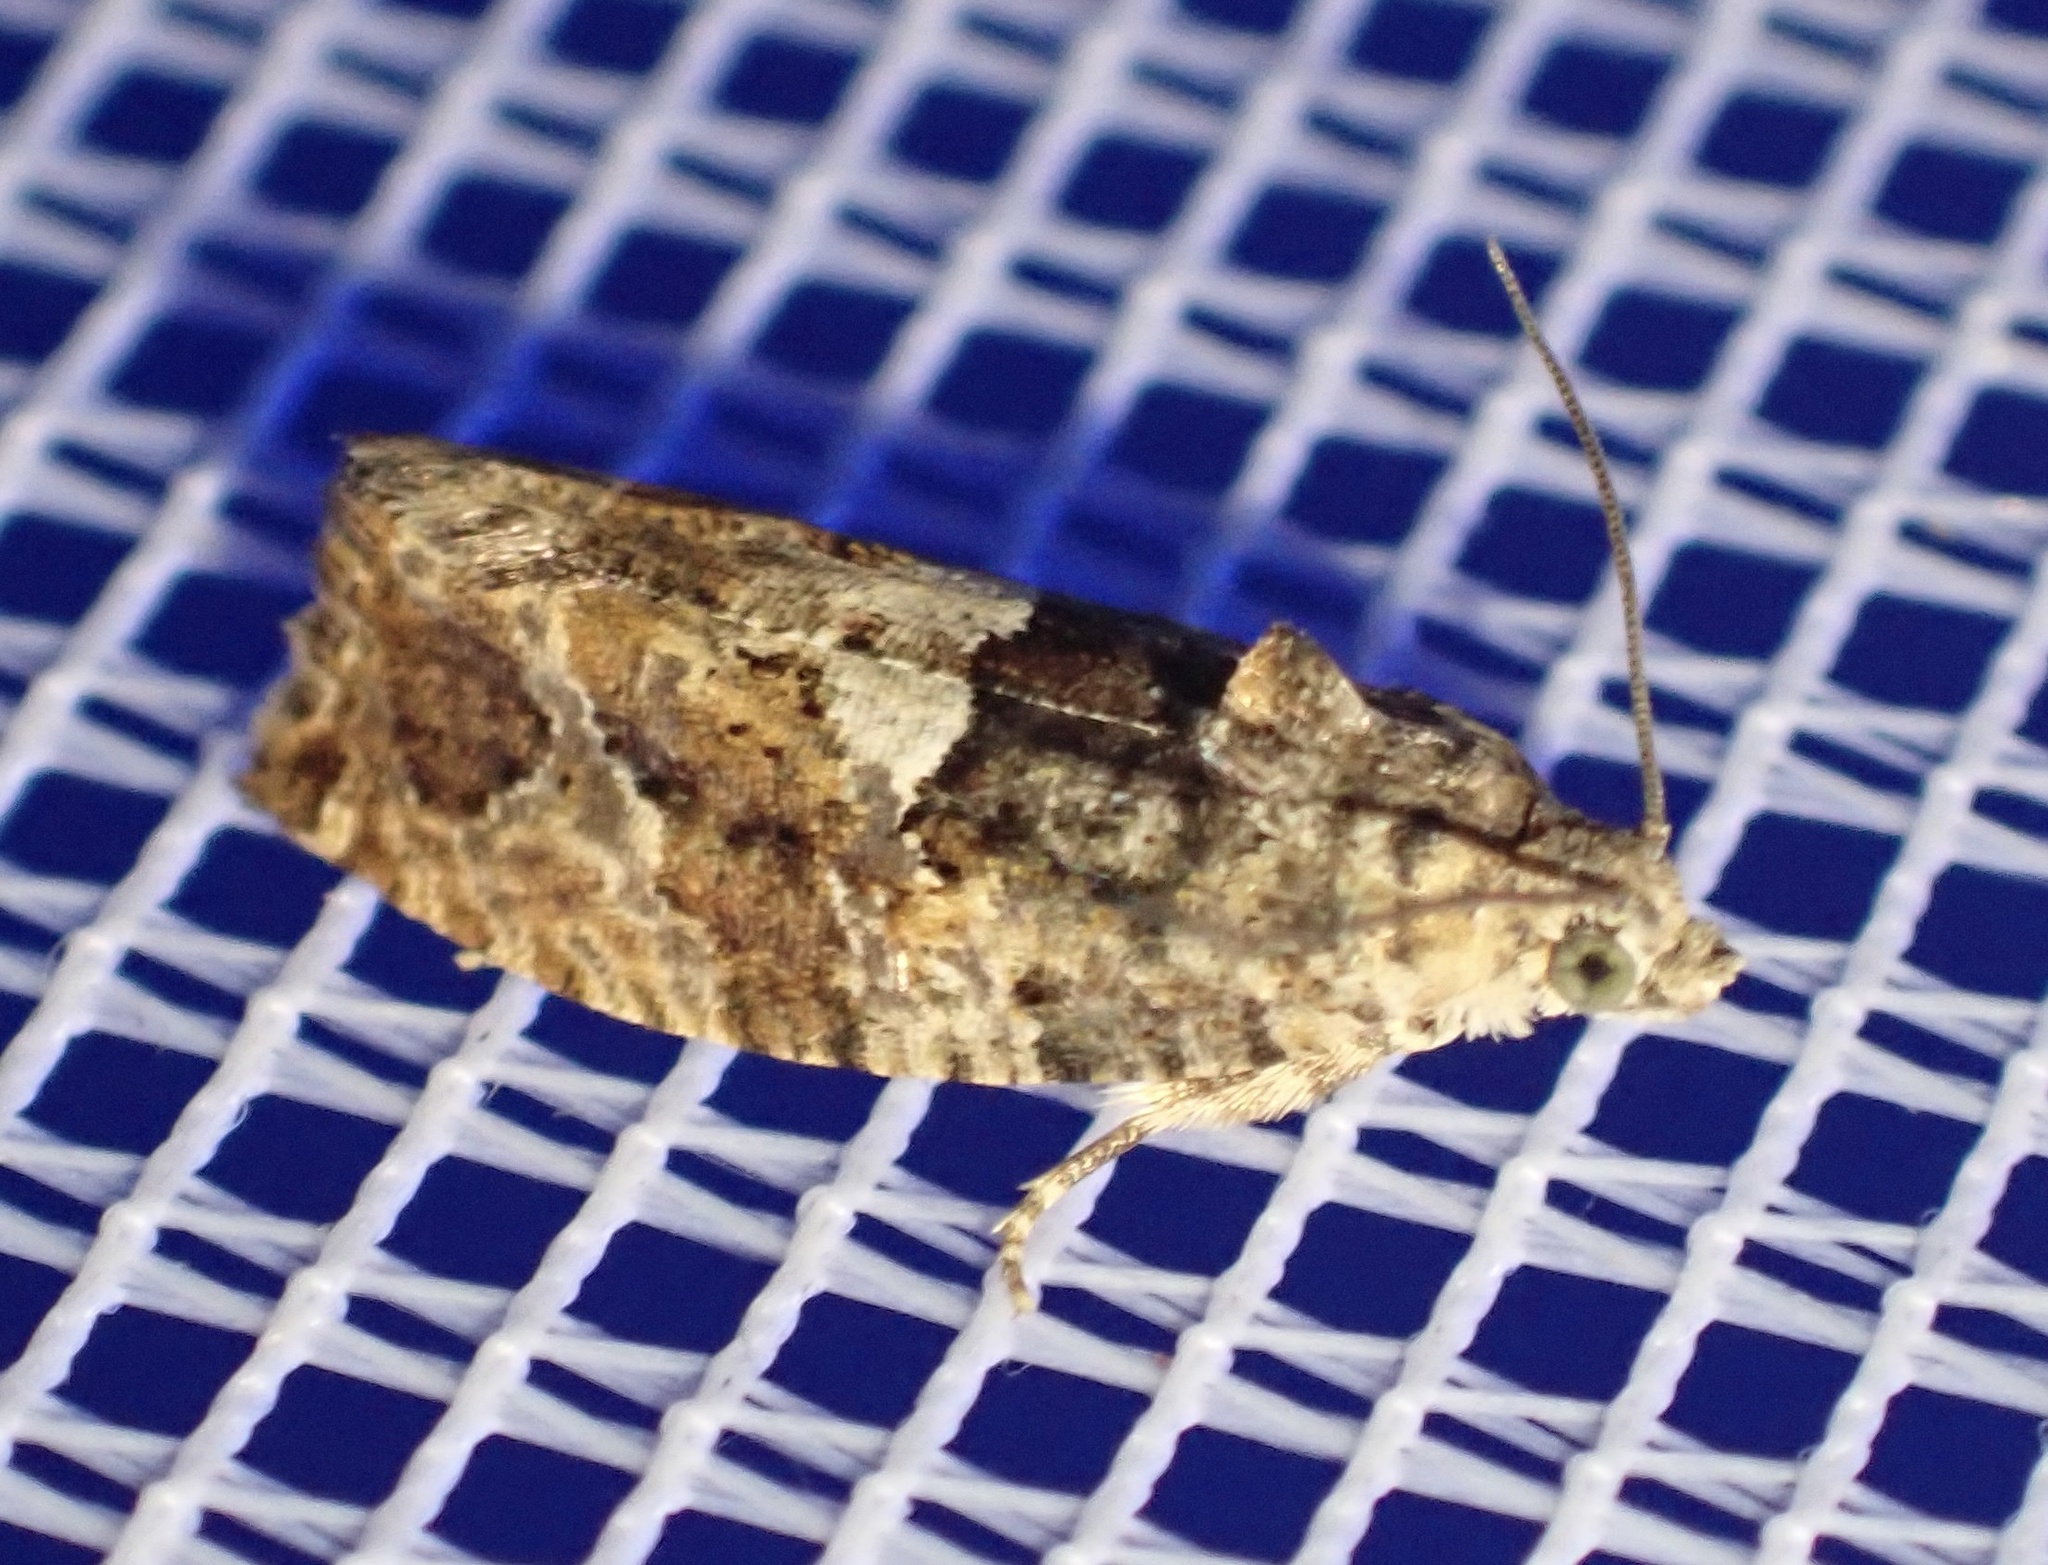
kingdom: Animalia
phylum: Arthropoda
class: Insecta
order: Lepidoptera
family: Tortricidae
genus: Eudemis
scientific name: Eudemis profundana
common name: Diamond-back marble
